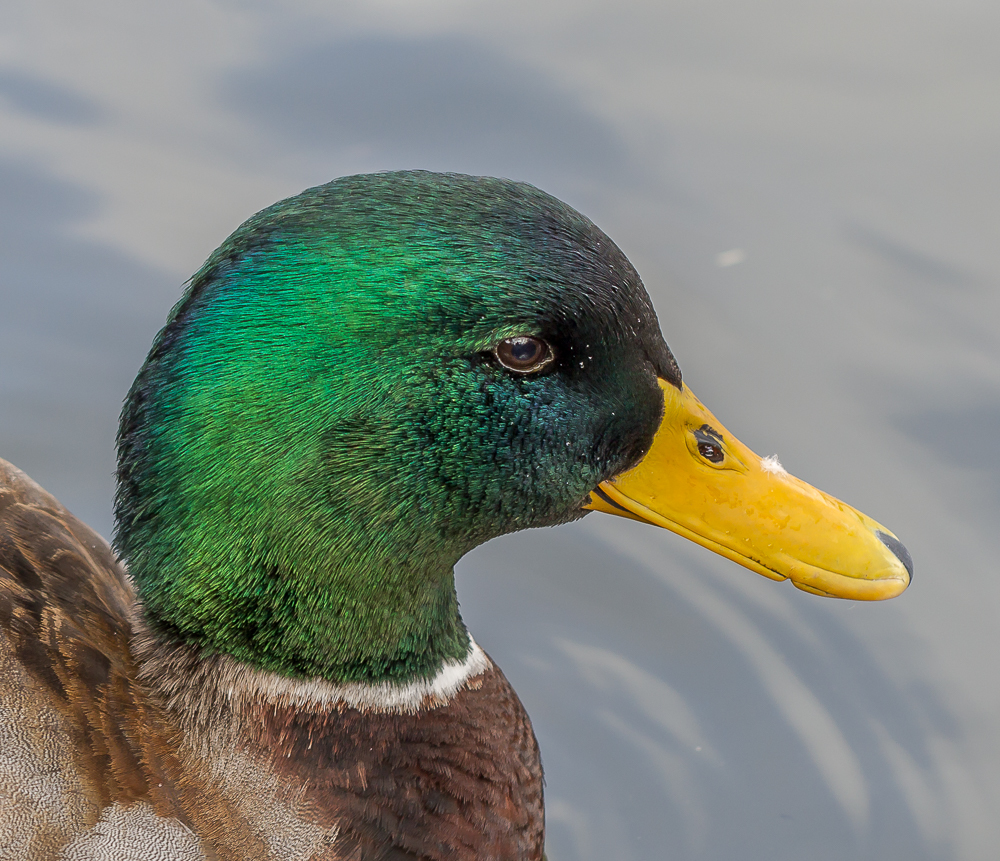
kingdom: Animalia
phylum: Chordata
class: Aves
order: Anseriformes
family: Anatidae
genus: Anas
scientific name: Anas platyrhynchos
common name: Mallard
